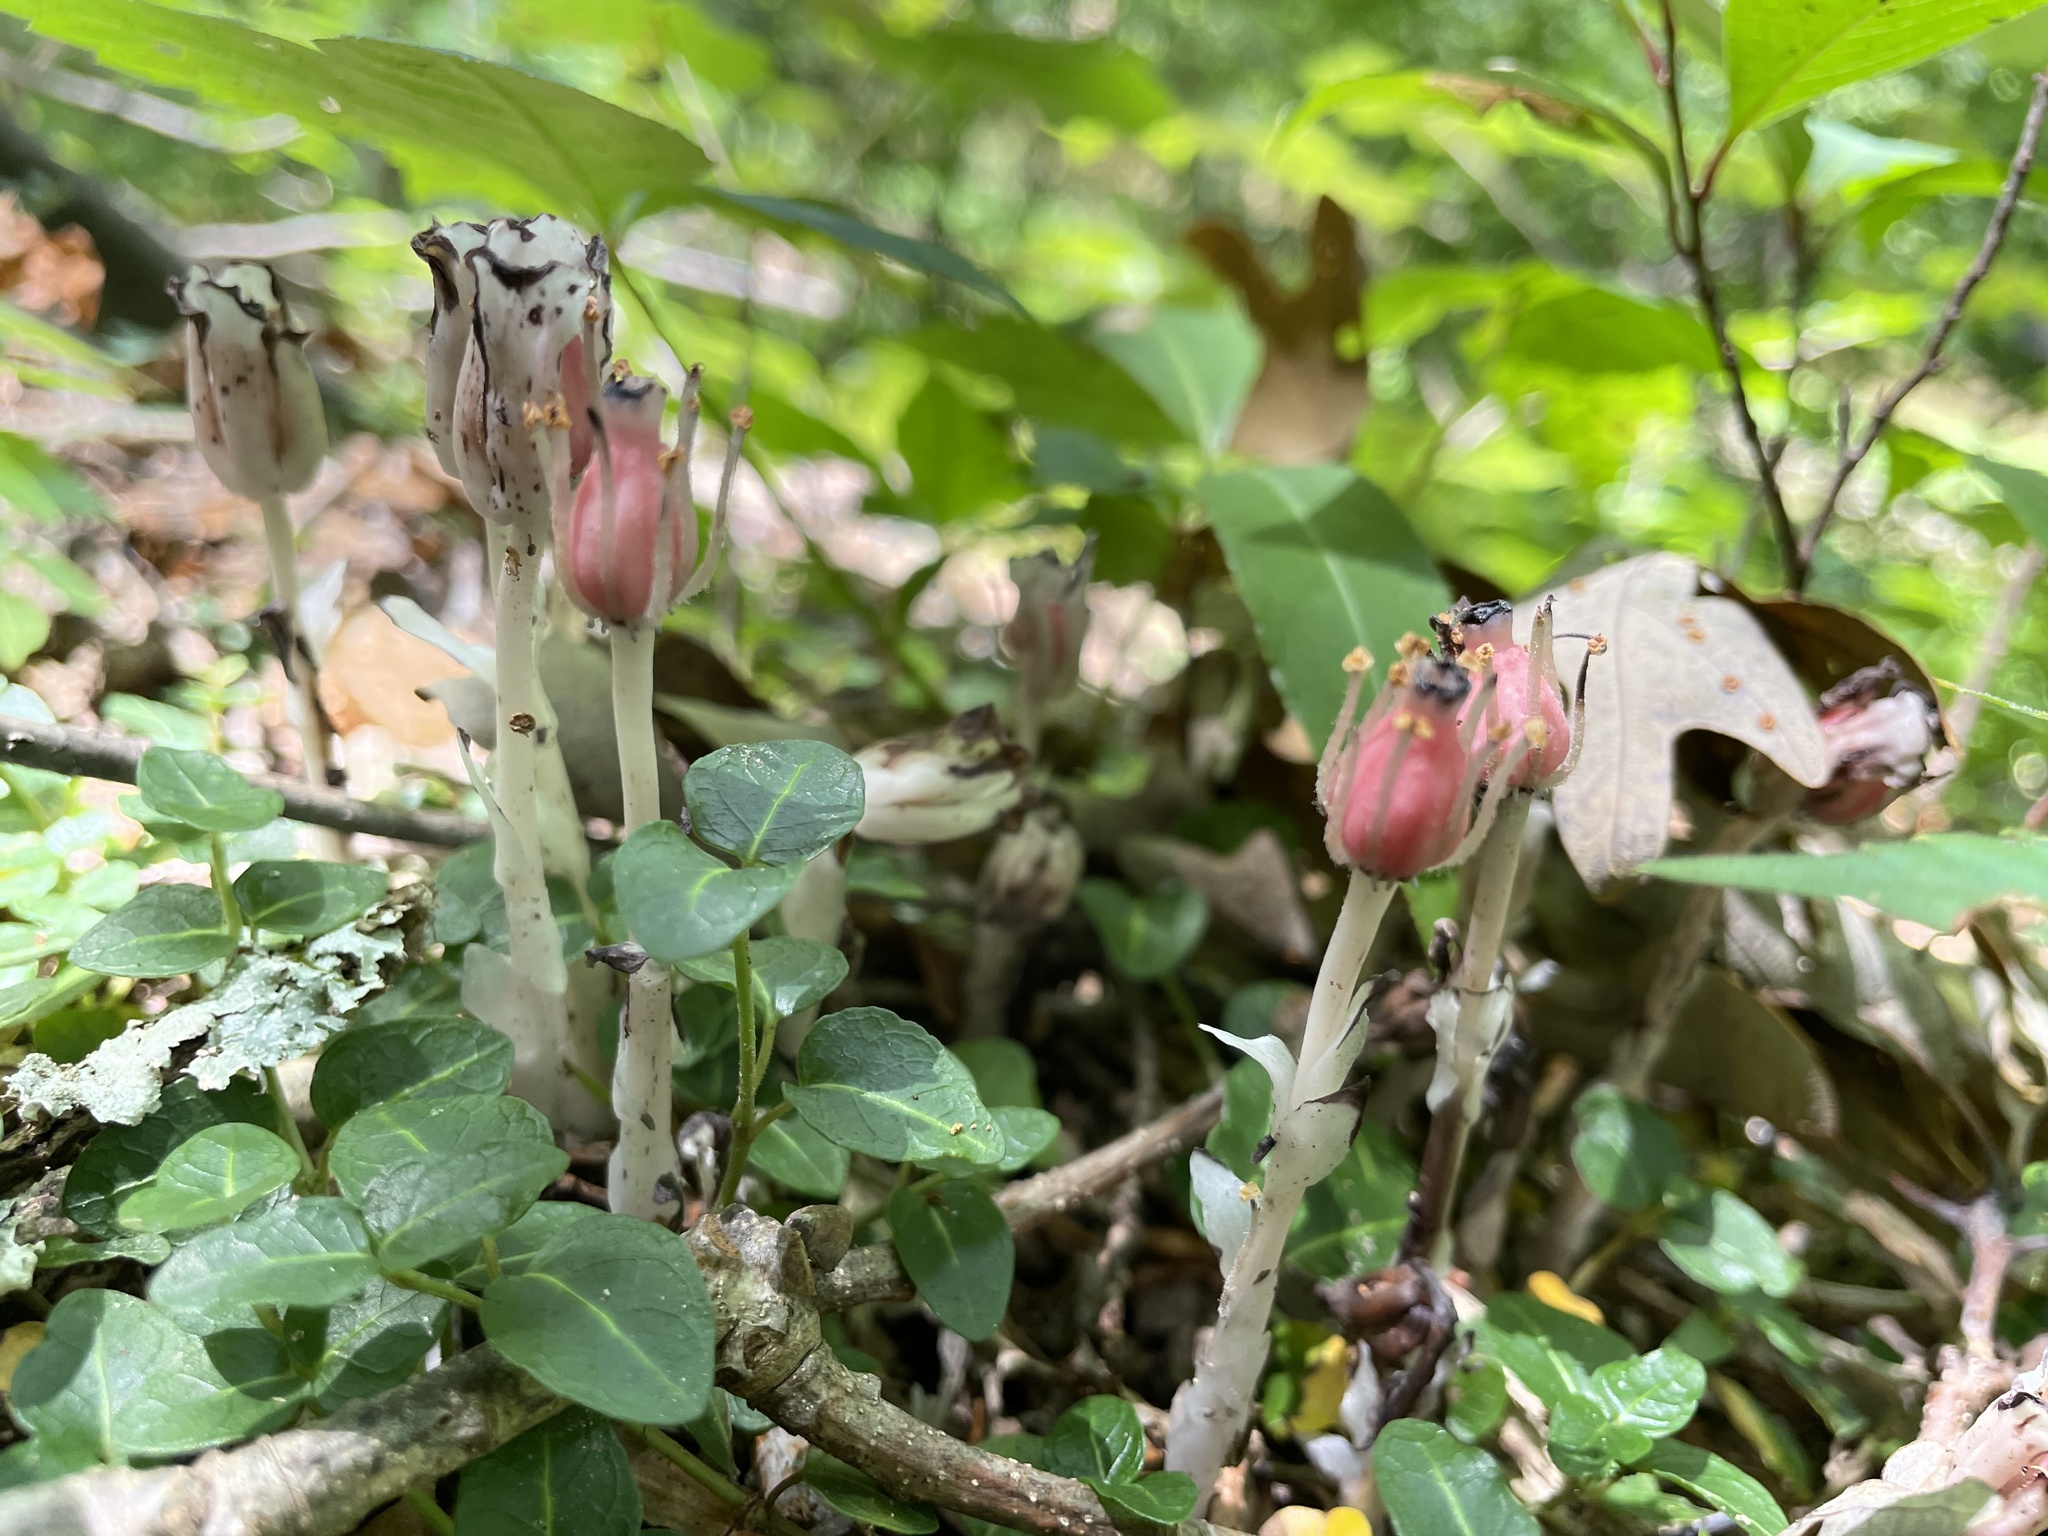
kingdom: Plantae
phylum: Tracheophyta
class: Magnoliopsida
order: Ericales
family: Ericaceae
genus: Monotropa
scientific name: Monotropa uniflora
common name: Convulsion root
